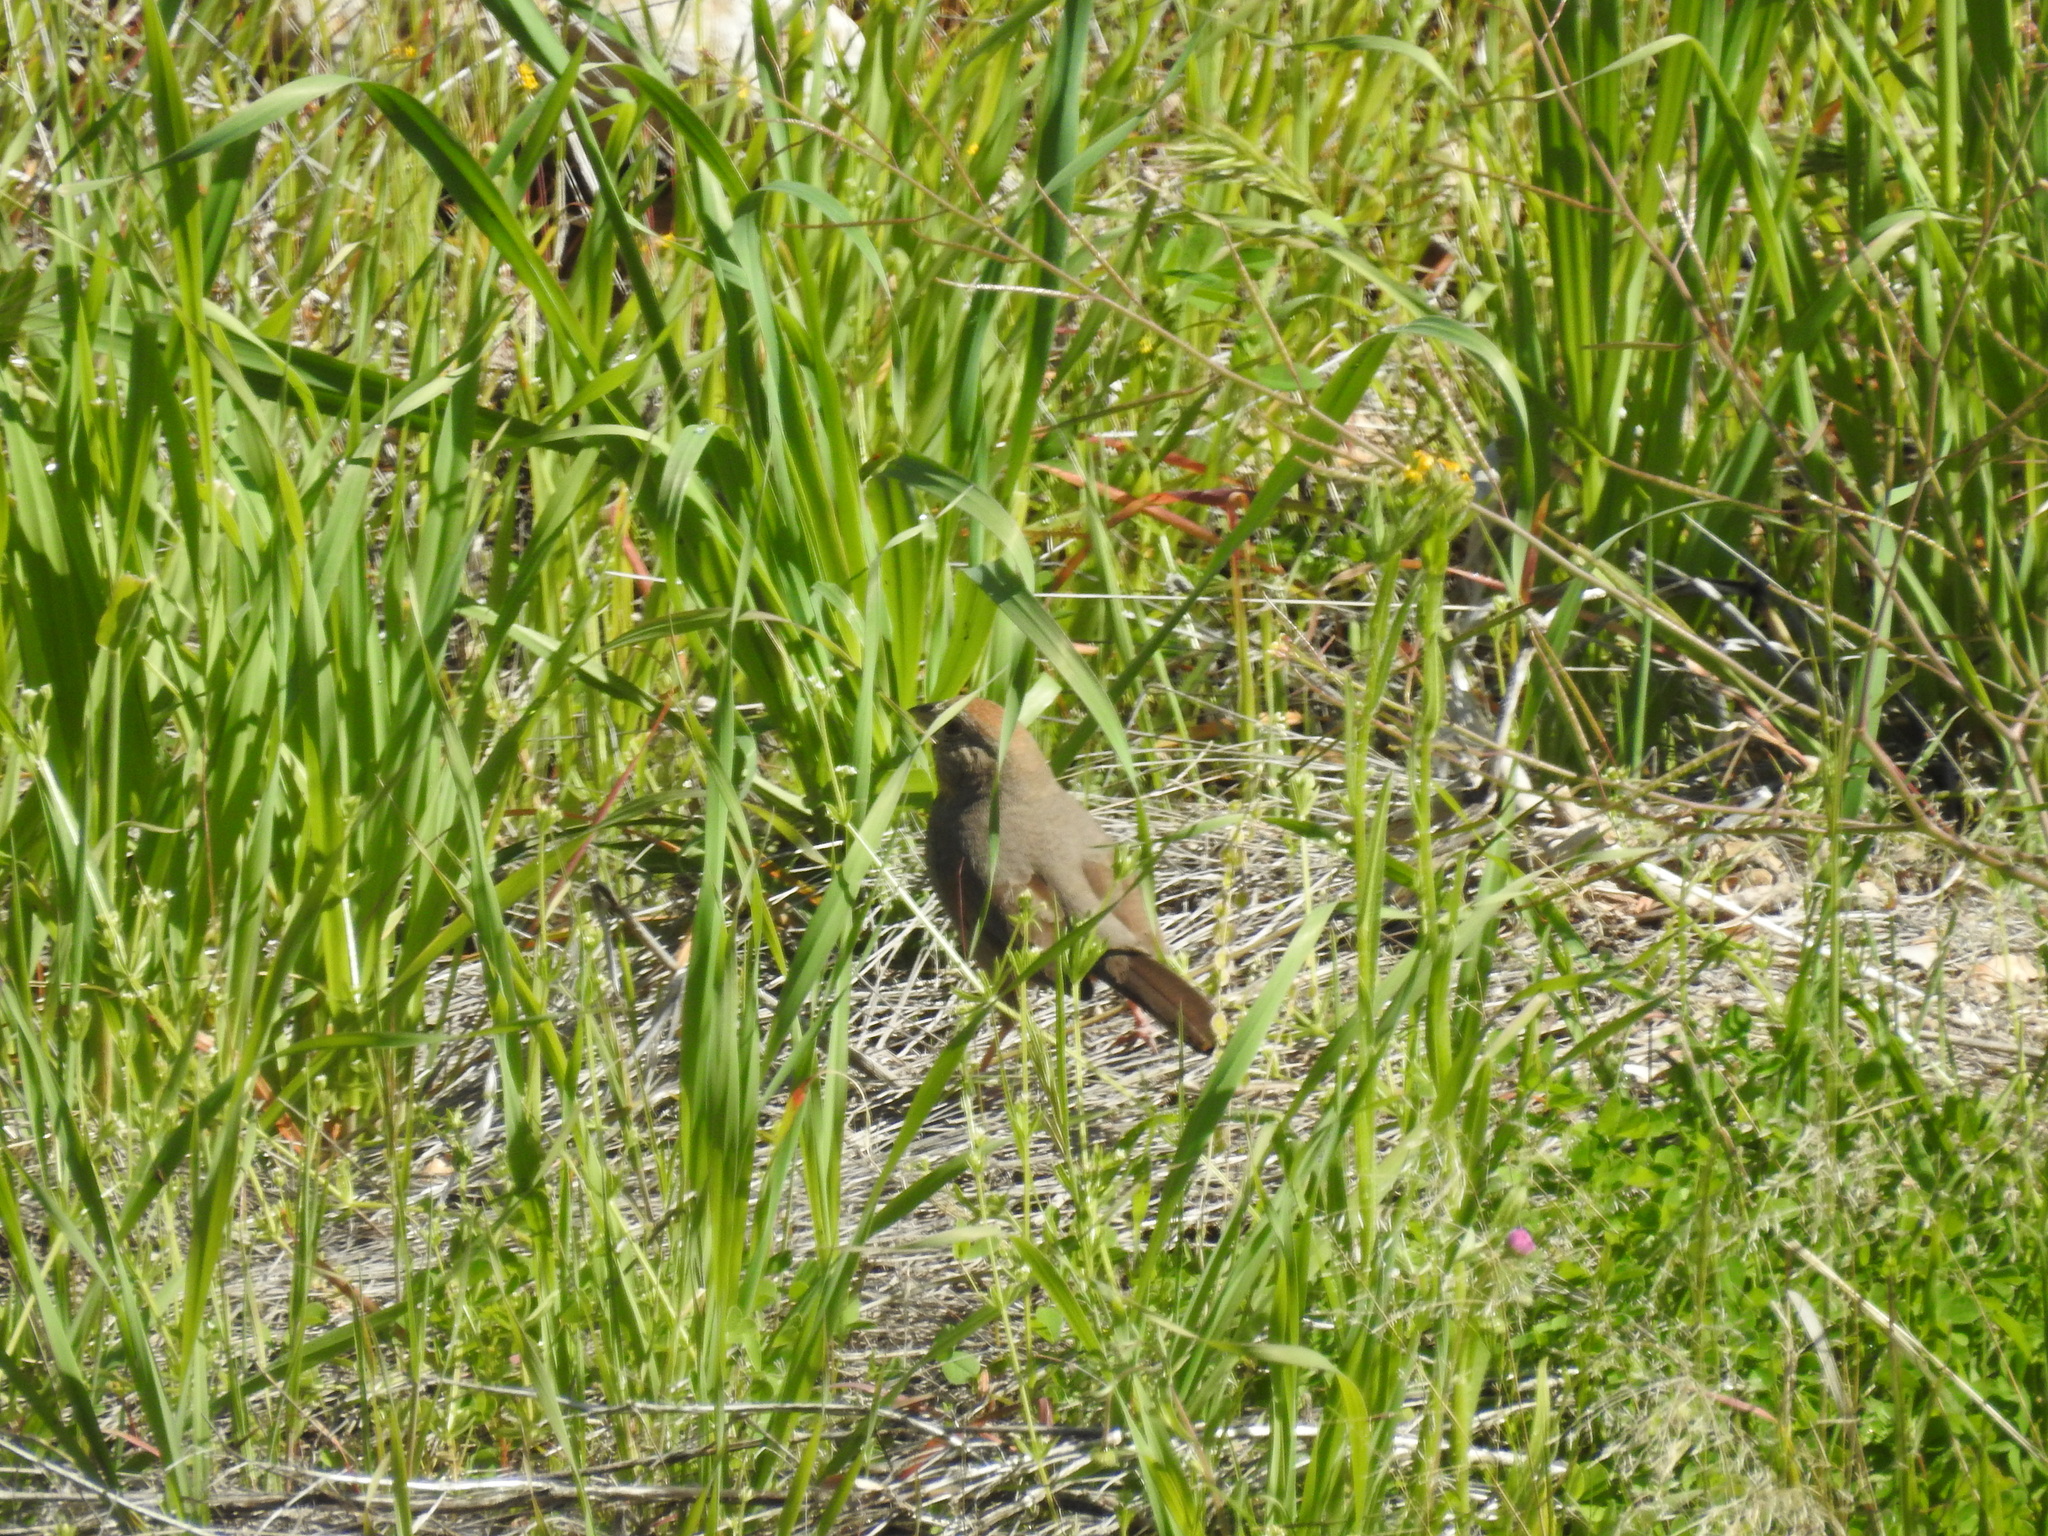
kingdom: Animalia
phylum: Chordata
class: Aves
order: Passeriformes
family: Passerellidae
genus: Melozone
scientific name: Melozone fusca
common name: Canyon towhee
